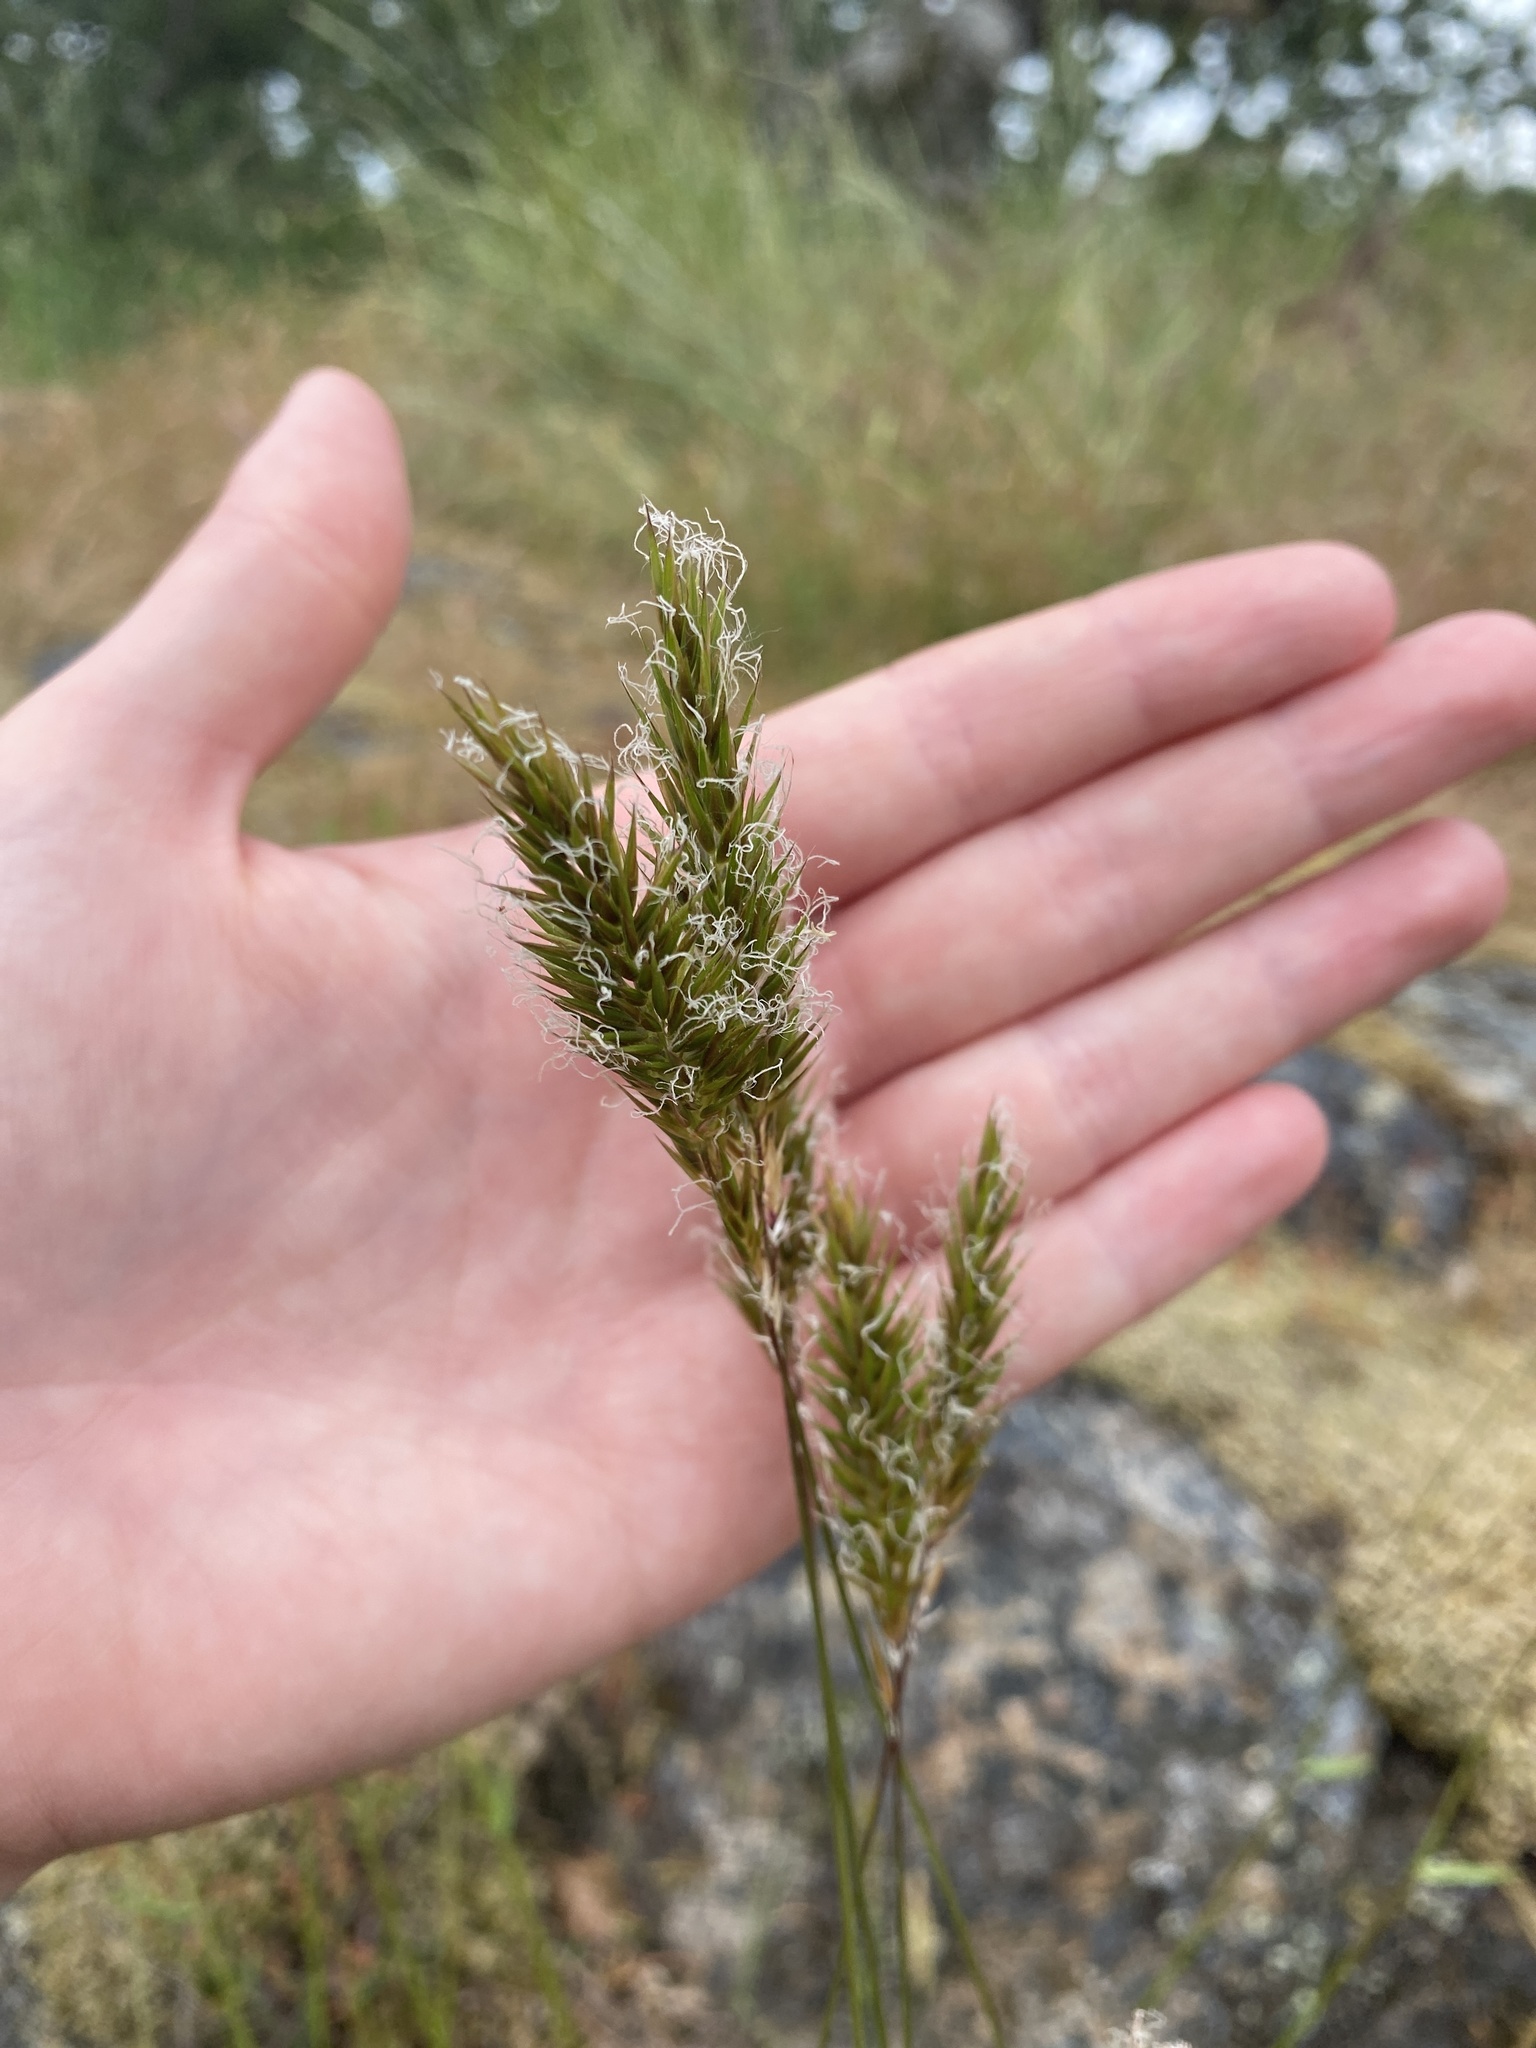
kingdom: Plantae
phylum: Tracheophyta
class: Liliopsida
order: Poales
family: Poaceae
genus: Anthoxanthum
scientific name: Anthoxanthum odoratum
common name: Sweet vernalgrass
